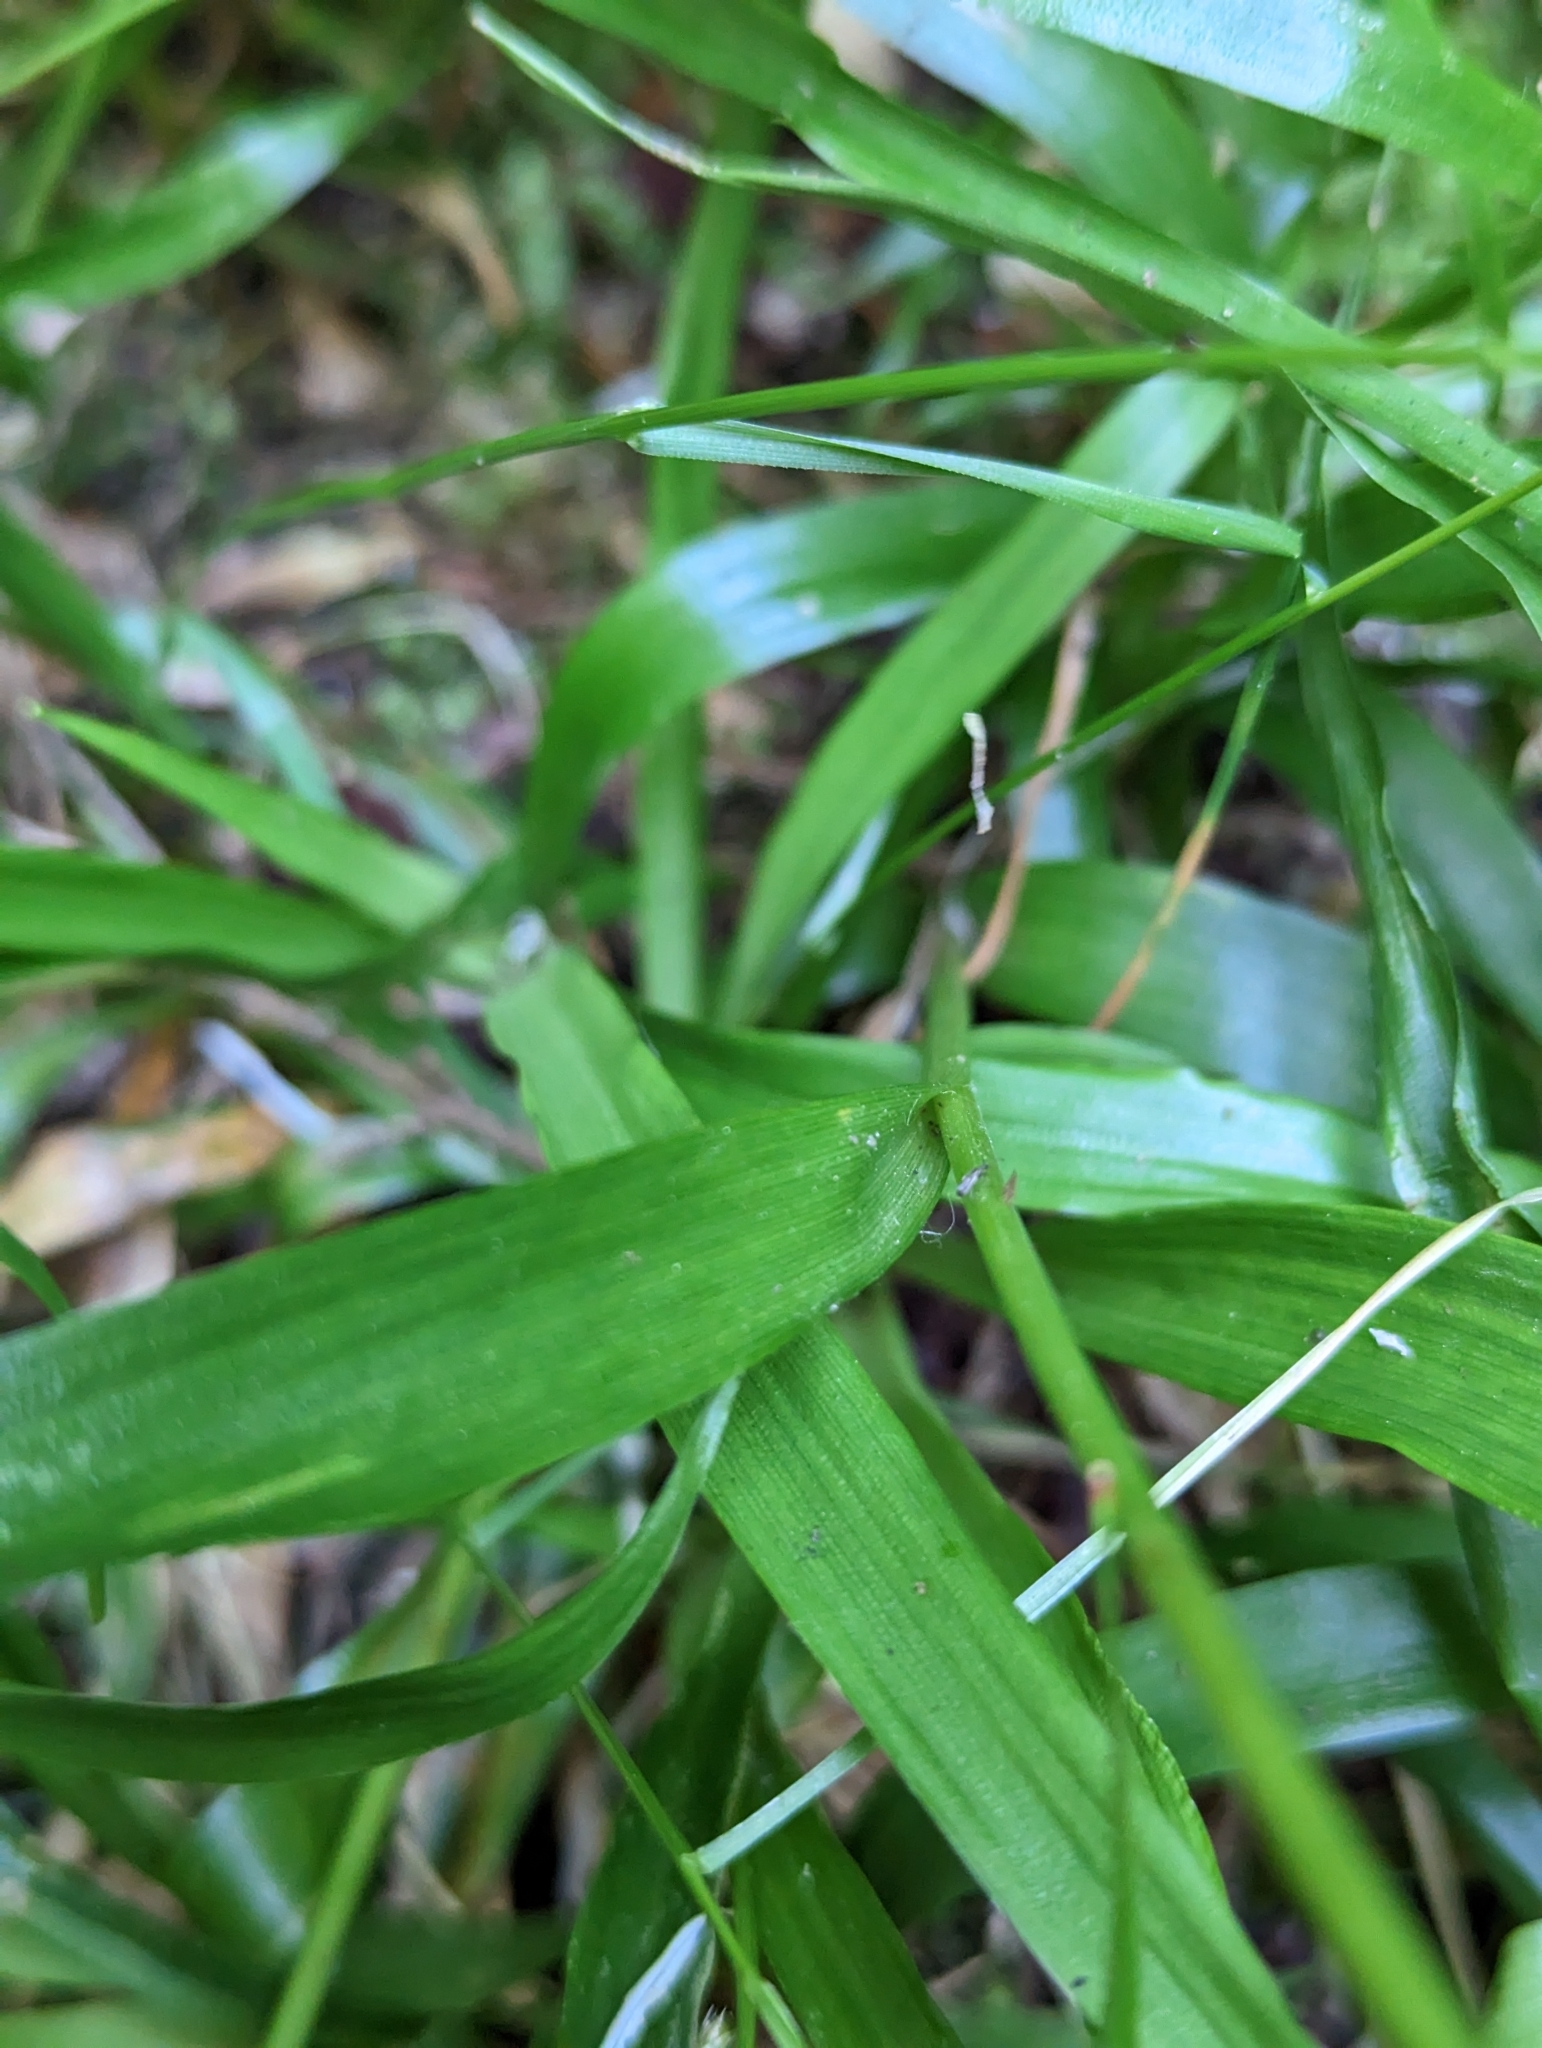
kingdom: Plantae
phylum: Tracheophyta
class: Liliopsida
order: Poales
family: Juncaceae
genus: Luzula
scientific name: Luzula parviflora
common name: Millet woodrush
